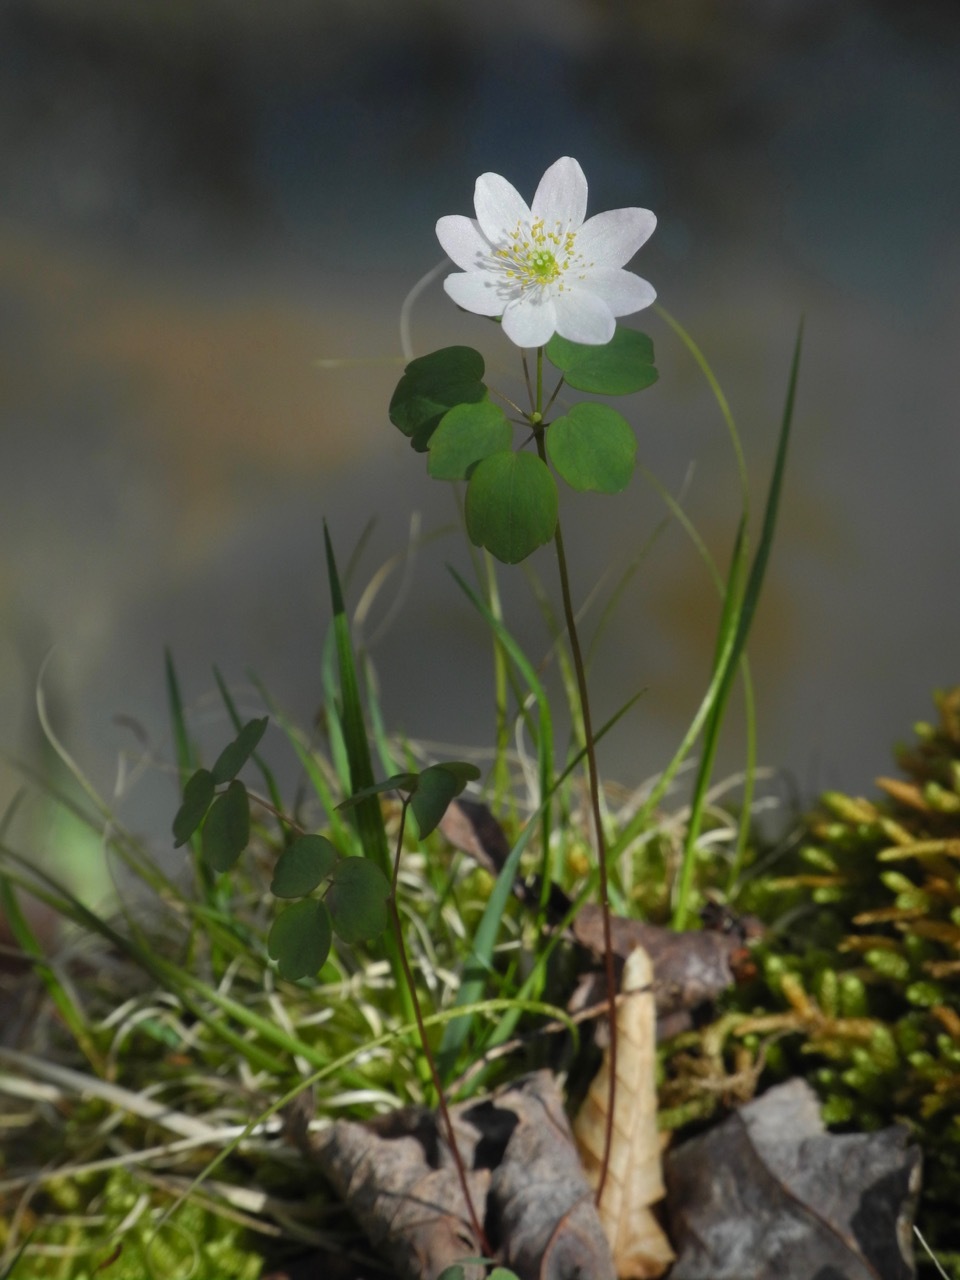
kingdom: Plantae
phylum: Tracheophyta
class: Magnoliopsida
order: Ranunculales
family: Ranunculaceae
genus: Thalictrum
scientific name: Thalictrum thalictroides
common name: Rue-anemone
